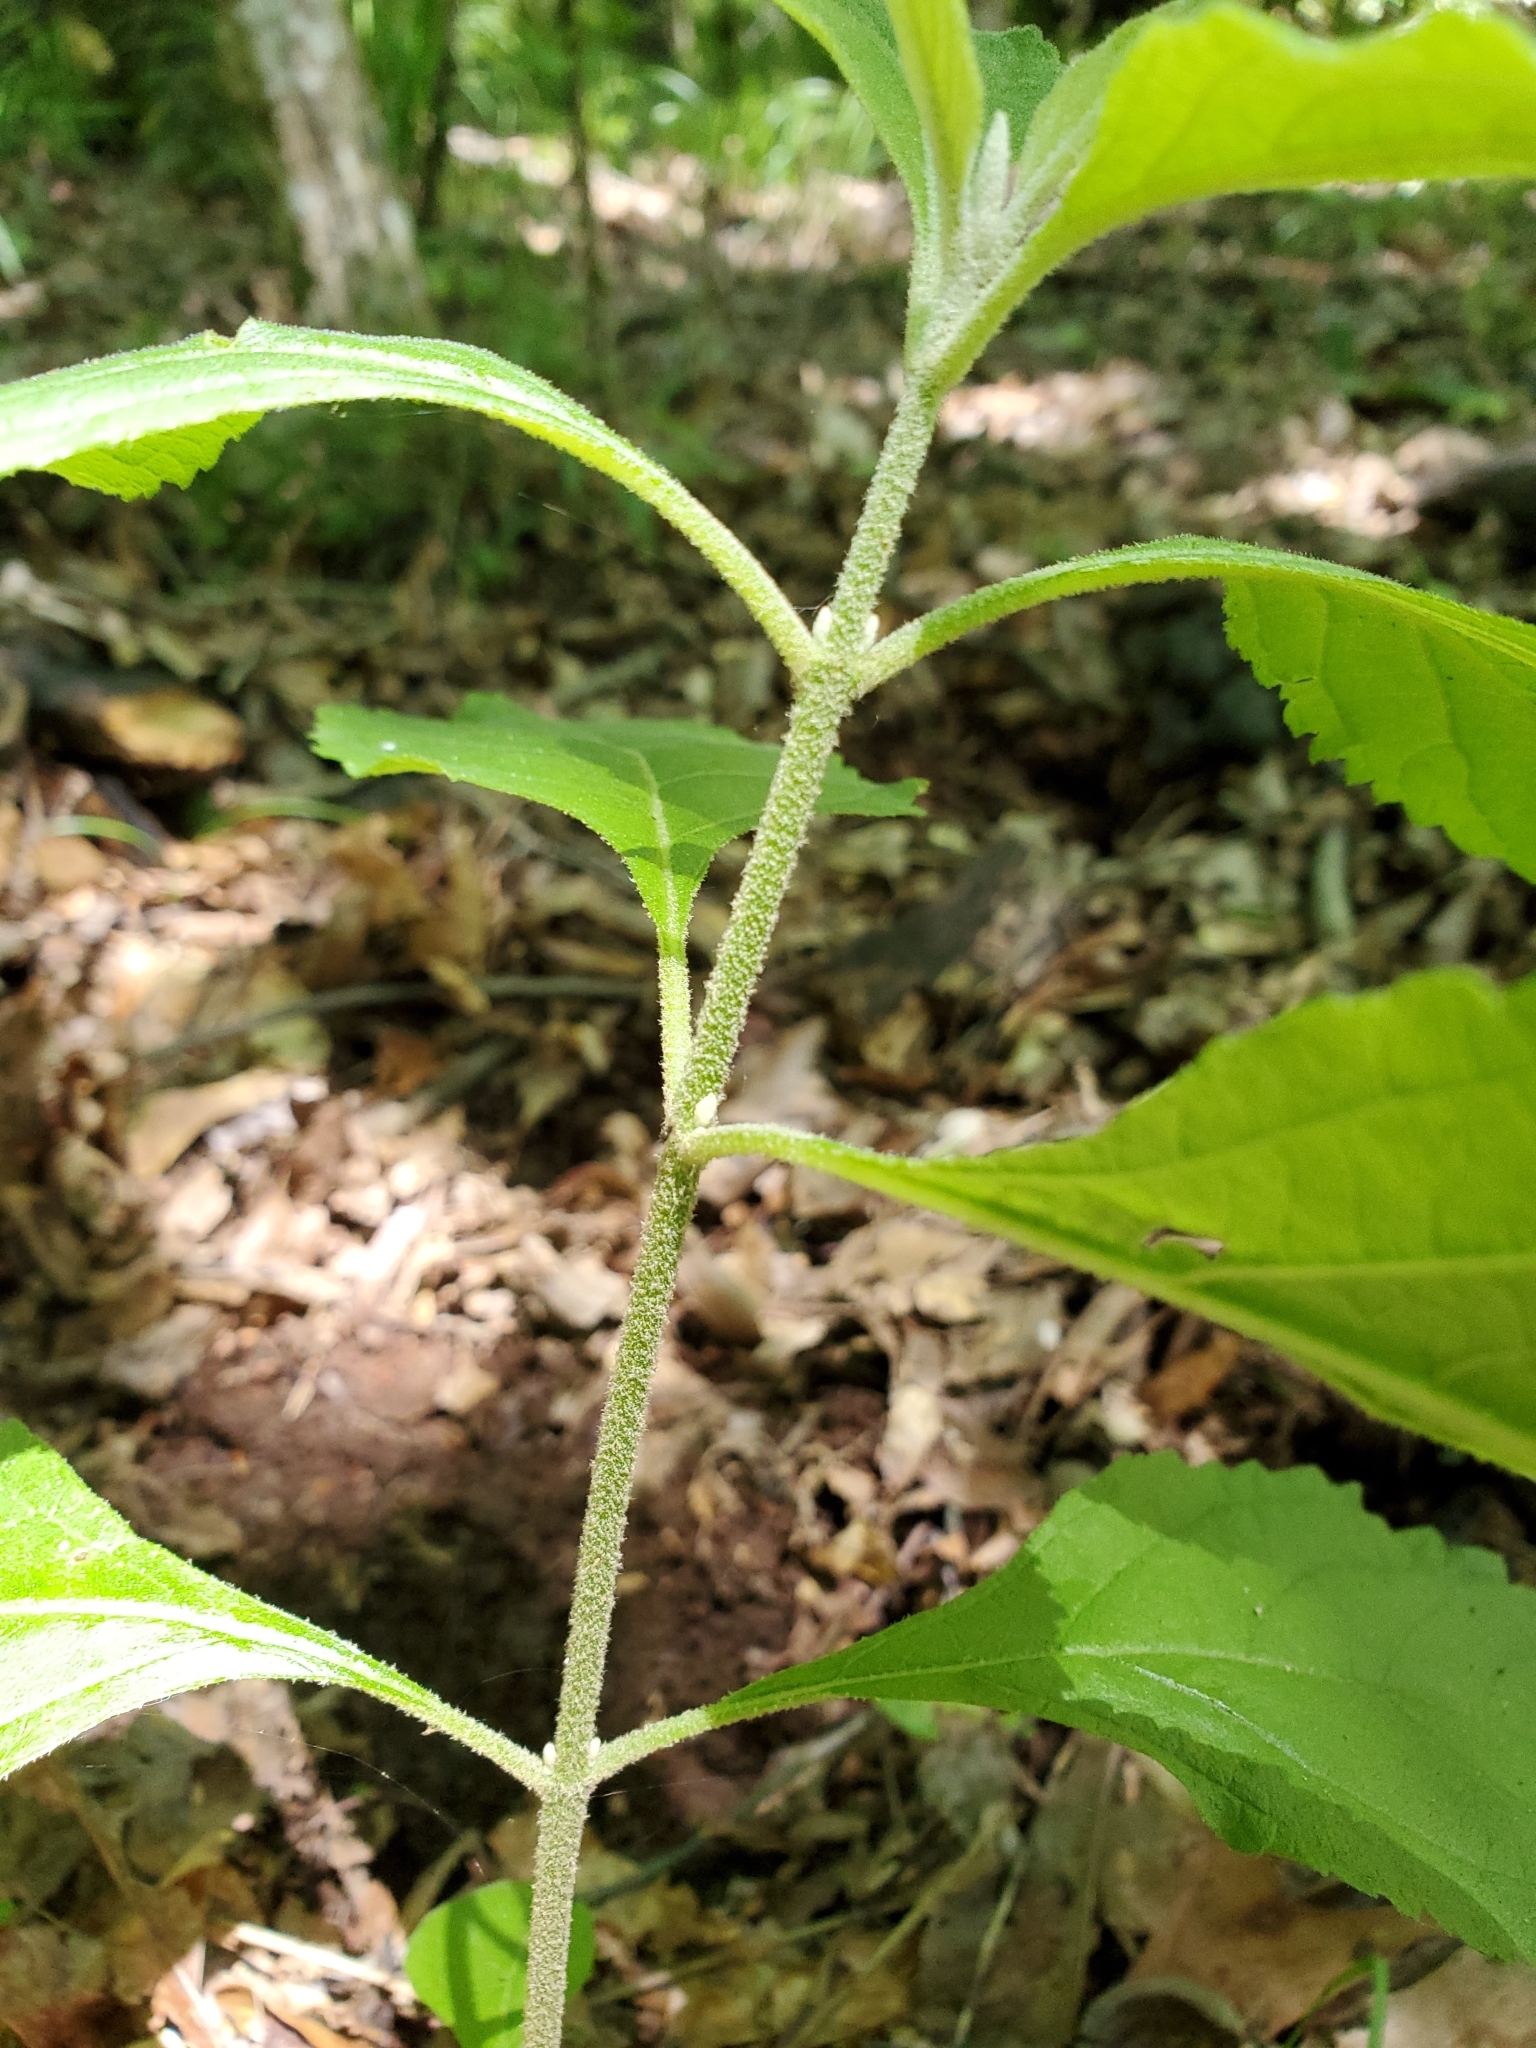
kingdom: Plantae
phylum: Tracheophyta
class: Magnoliopsida
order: Lamiales
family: Lamiaceae
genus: Callicarpa
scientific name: Callicarpa americana
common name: American beautyberry
